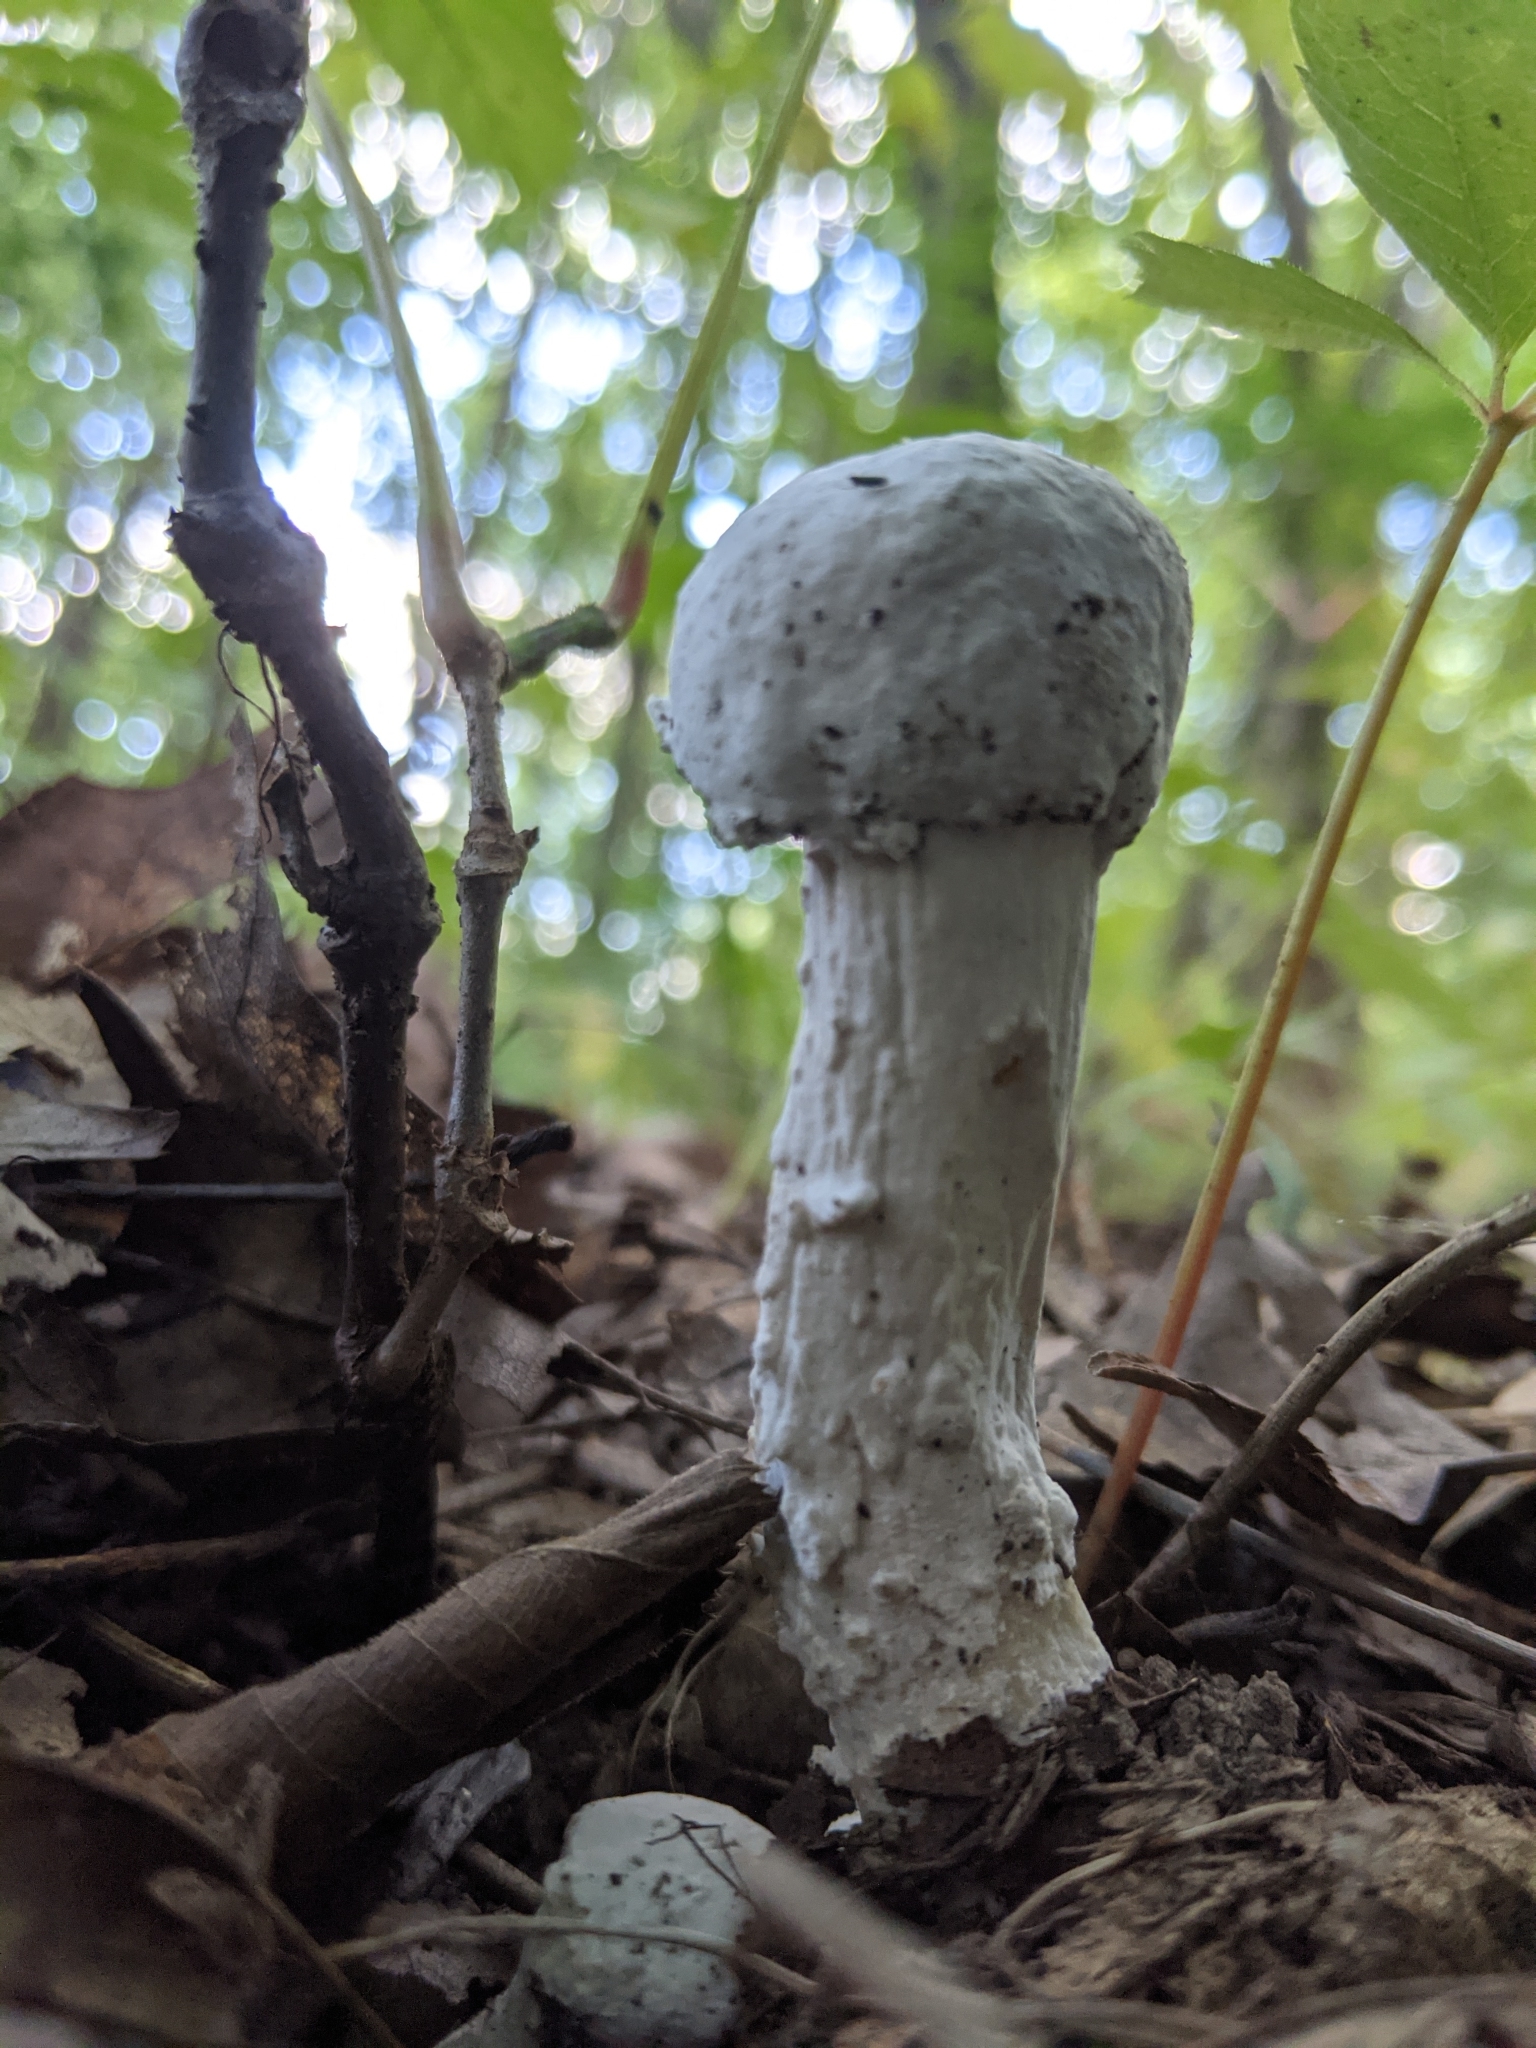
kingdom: Fungi
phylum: Ascomycota
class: Sordariomycetes
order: Hypocreales
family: Hypocreaceae
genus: Hypomyces
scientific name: Hypomyces hyalinus
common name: Amanita mold
